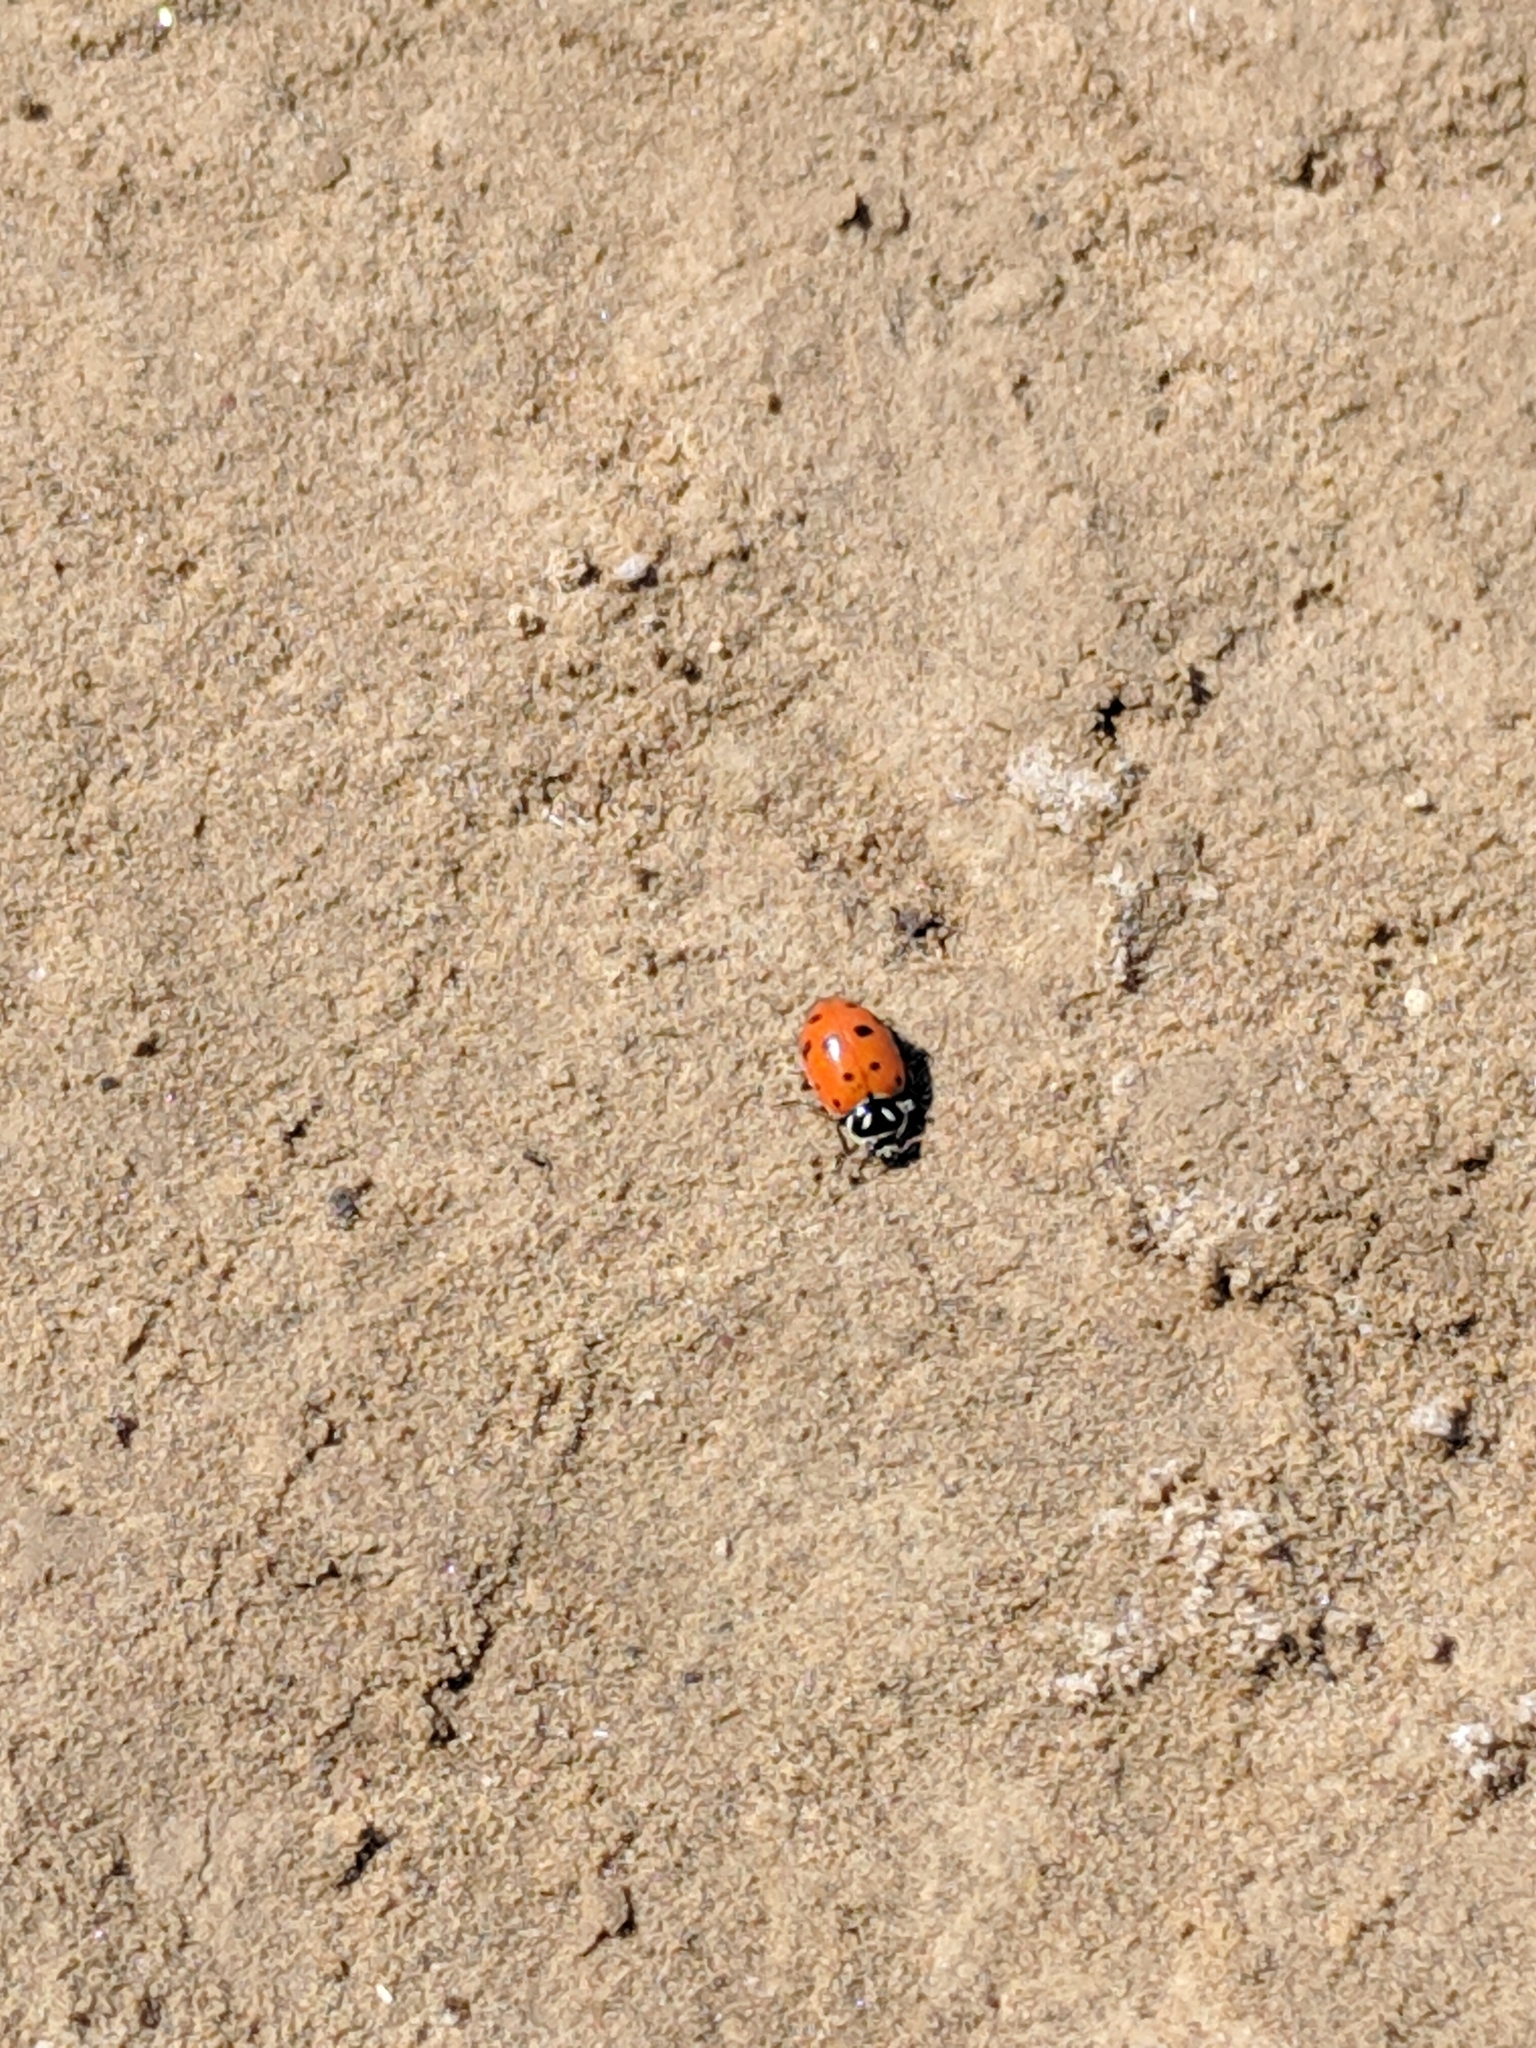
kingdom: Animalia
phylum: Arthropoda
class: Insecta
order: Coleoptera
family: Coccinellidae
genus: Hippodamia
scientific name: Hippodamia convergens
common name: Convergent lady beetle
